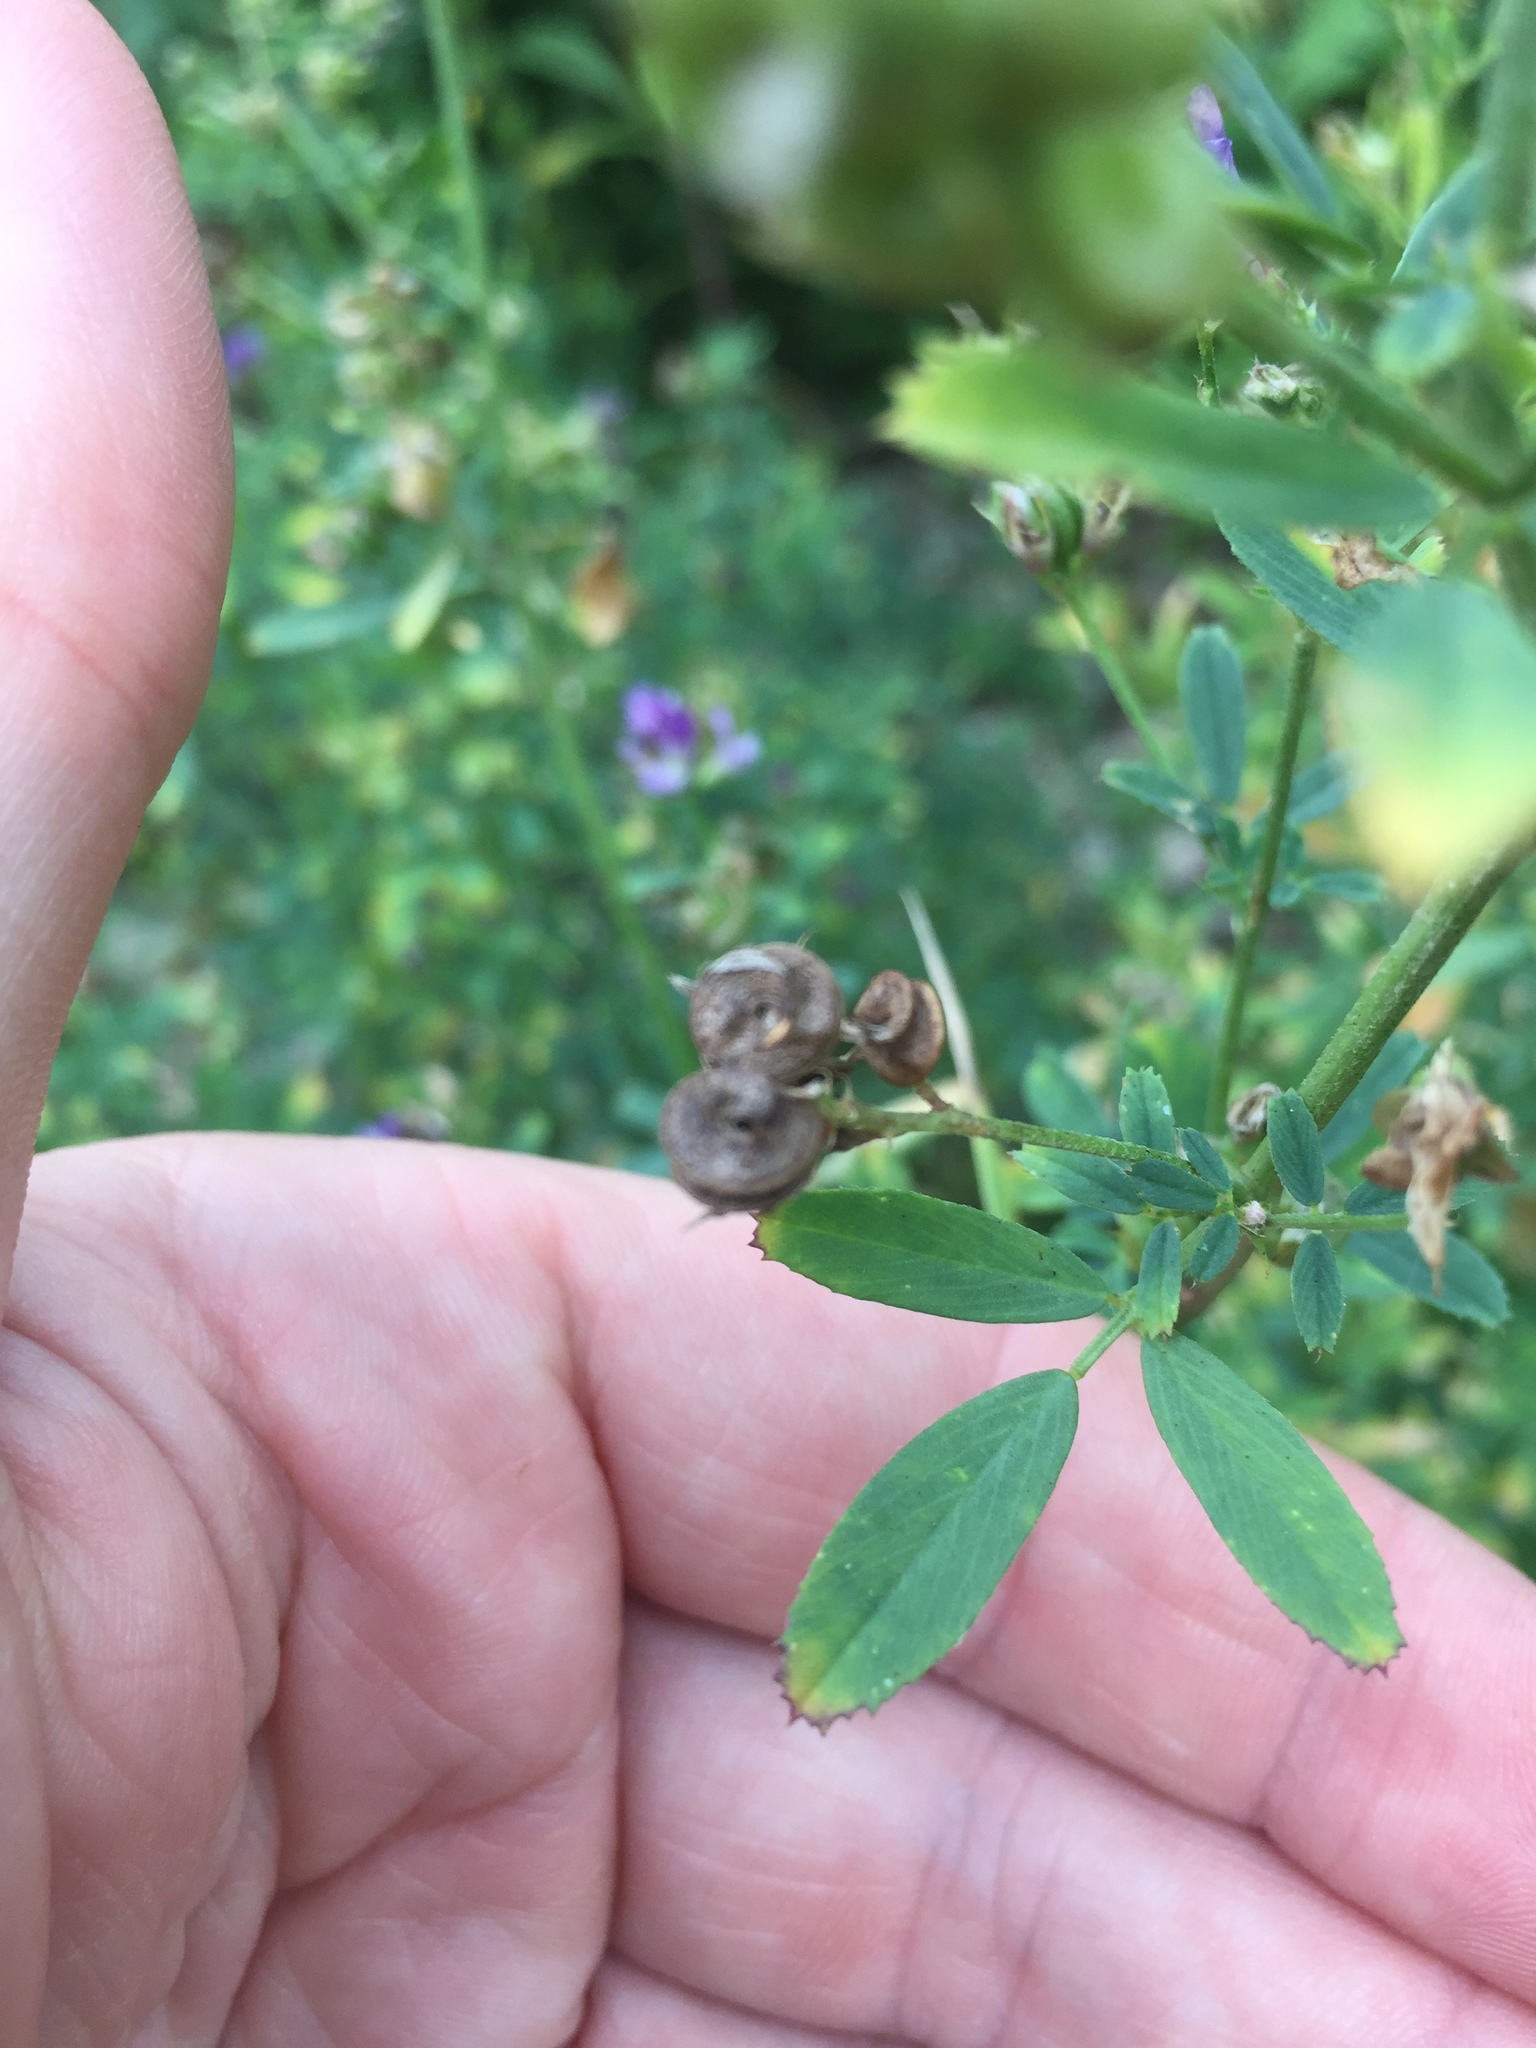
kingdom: Plantae
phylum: Tracheophyta
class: Magnoliopsida
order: Fabales
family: Fabaceae
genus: Medicago
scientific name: Medicago sativa
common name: Alfalfa
